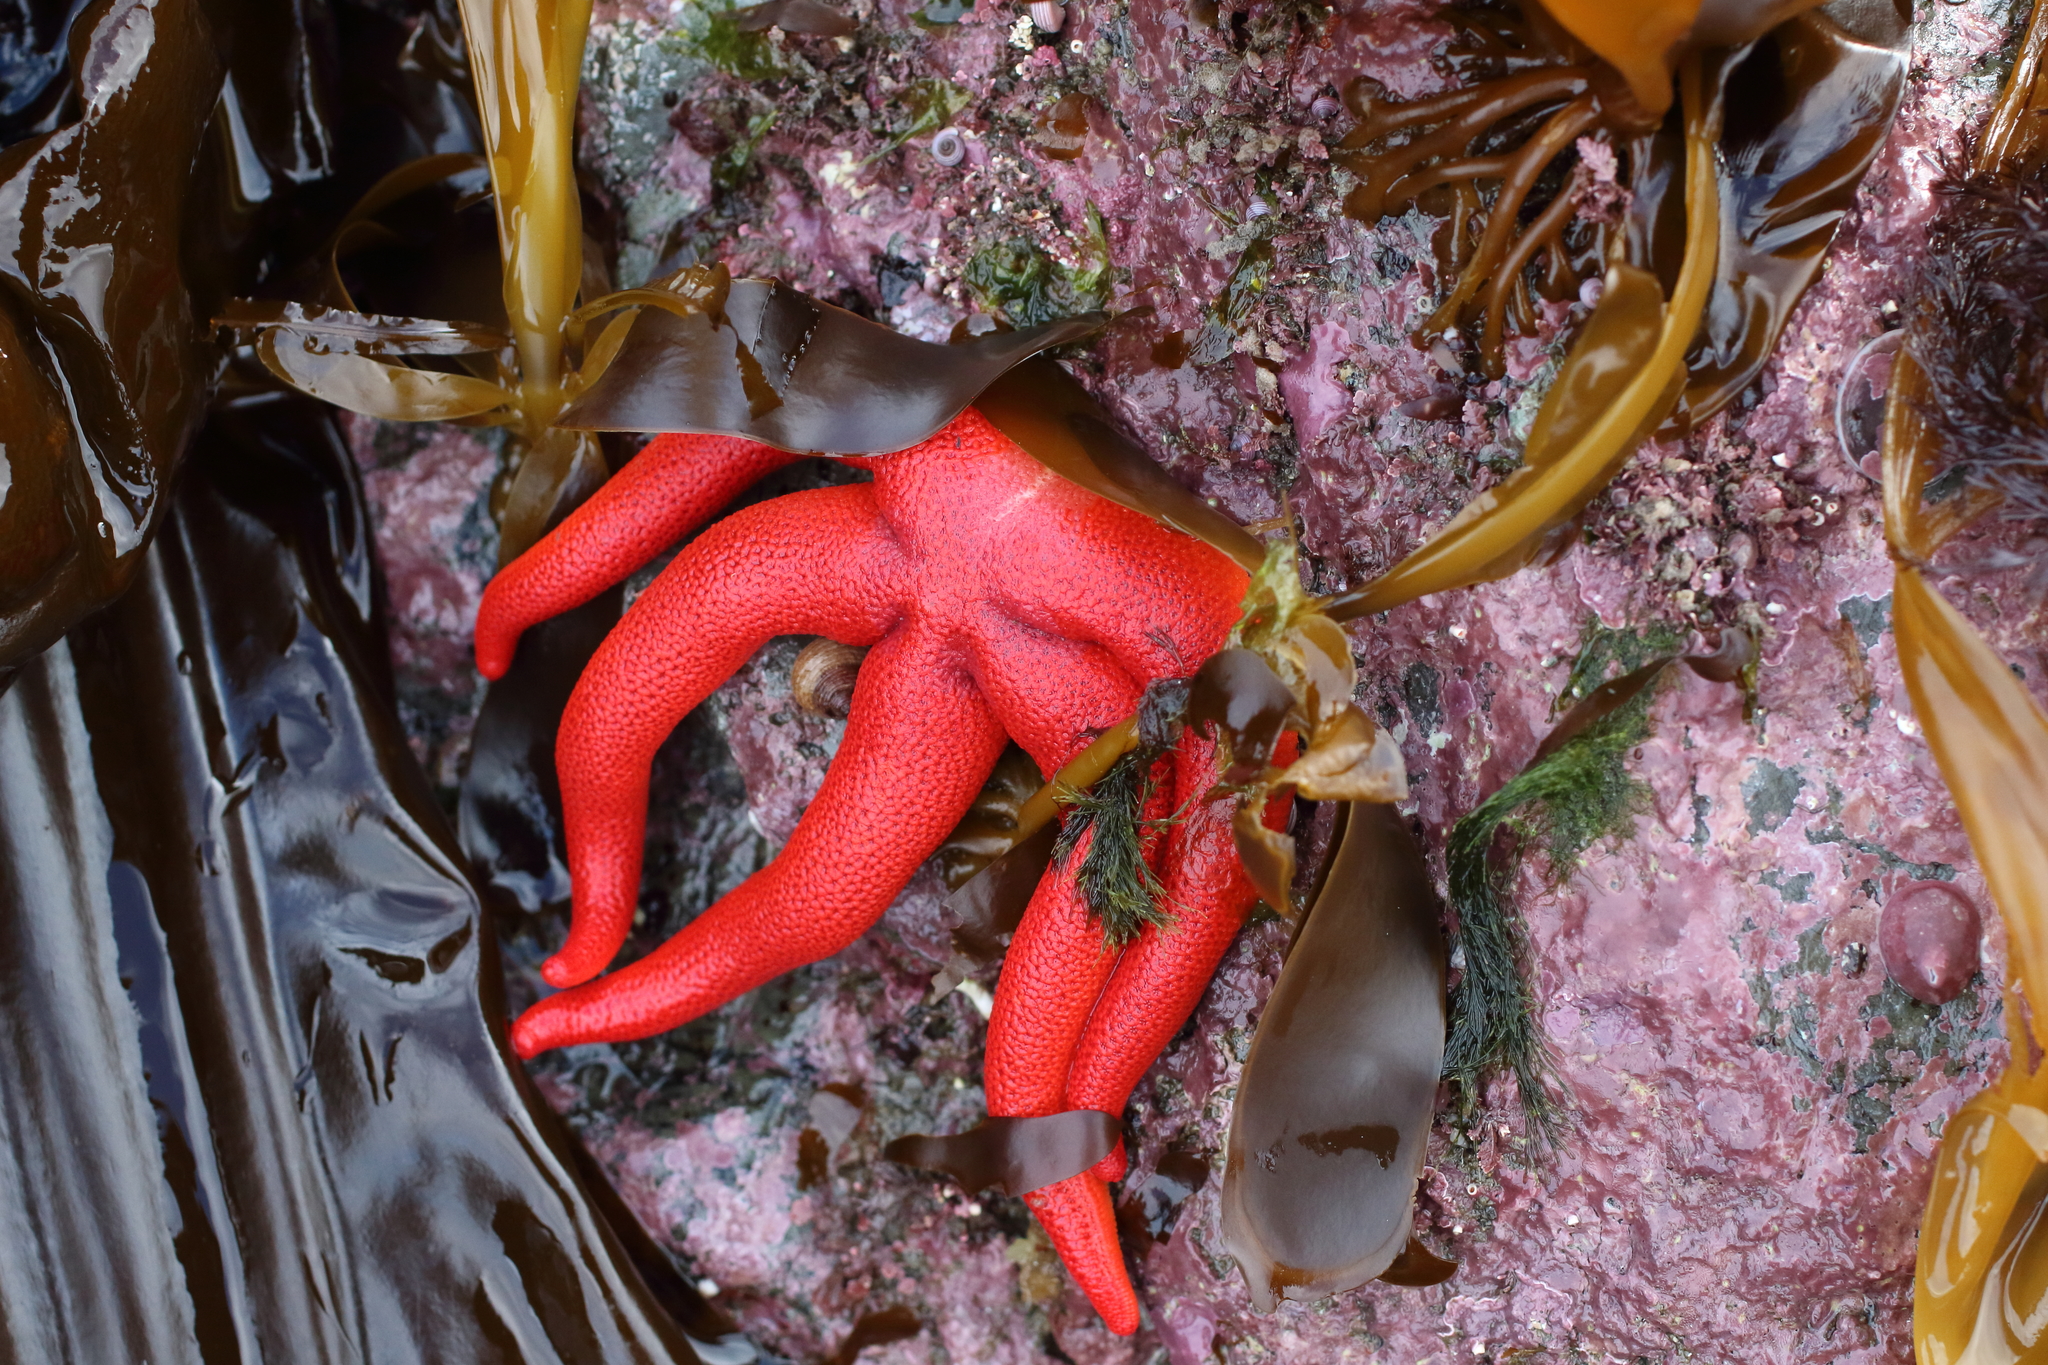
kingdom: Animalia
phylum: Echinodermata
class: Asteroidea
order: Spinulosida
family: Echinasteridae
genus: Henricia
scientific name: Henricia leviuscula
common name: Pacific blood star
